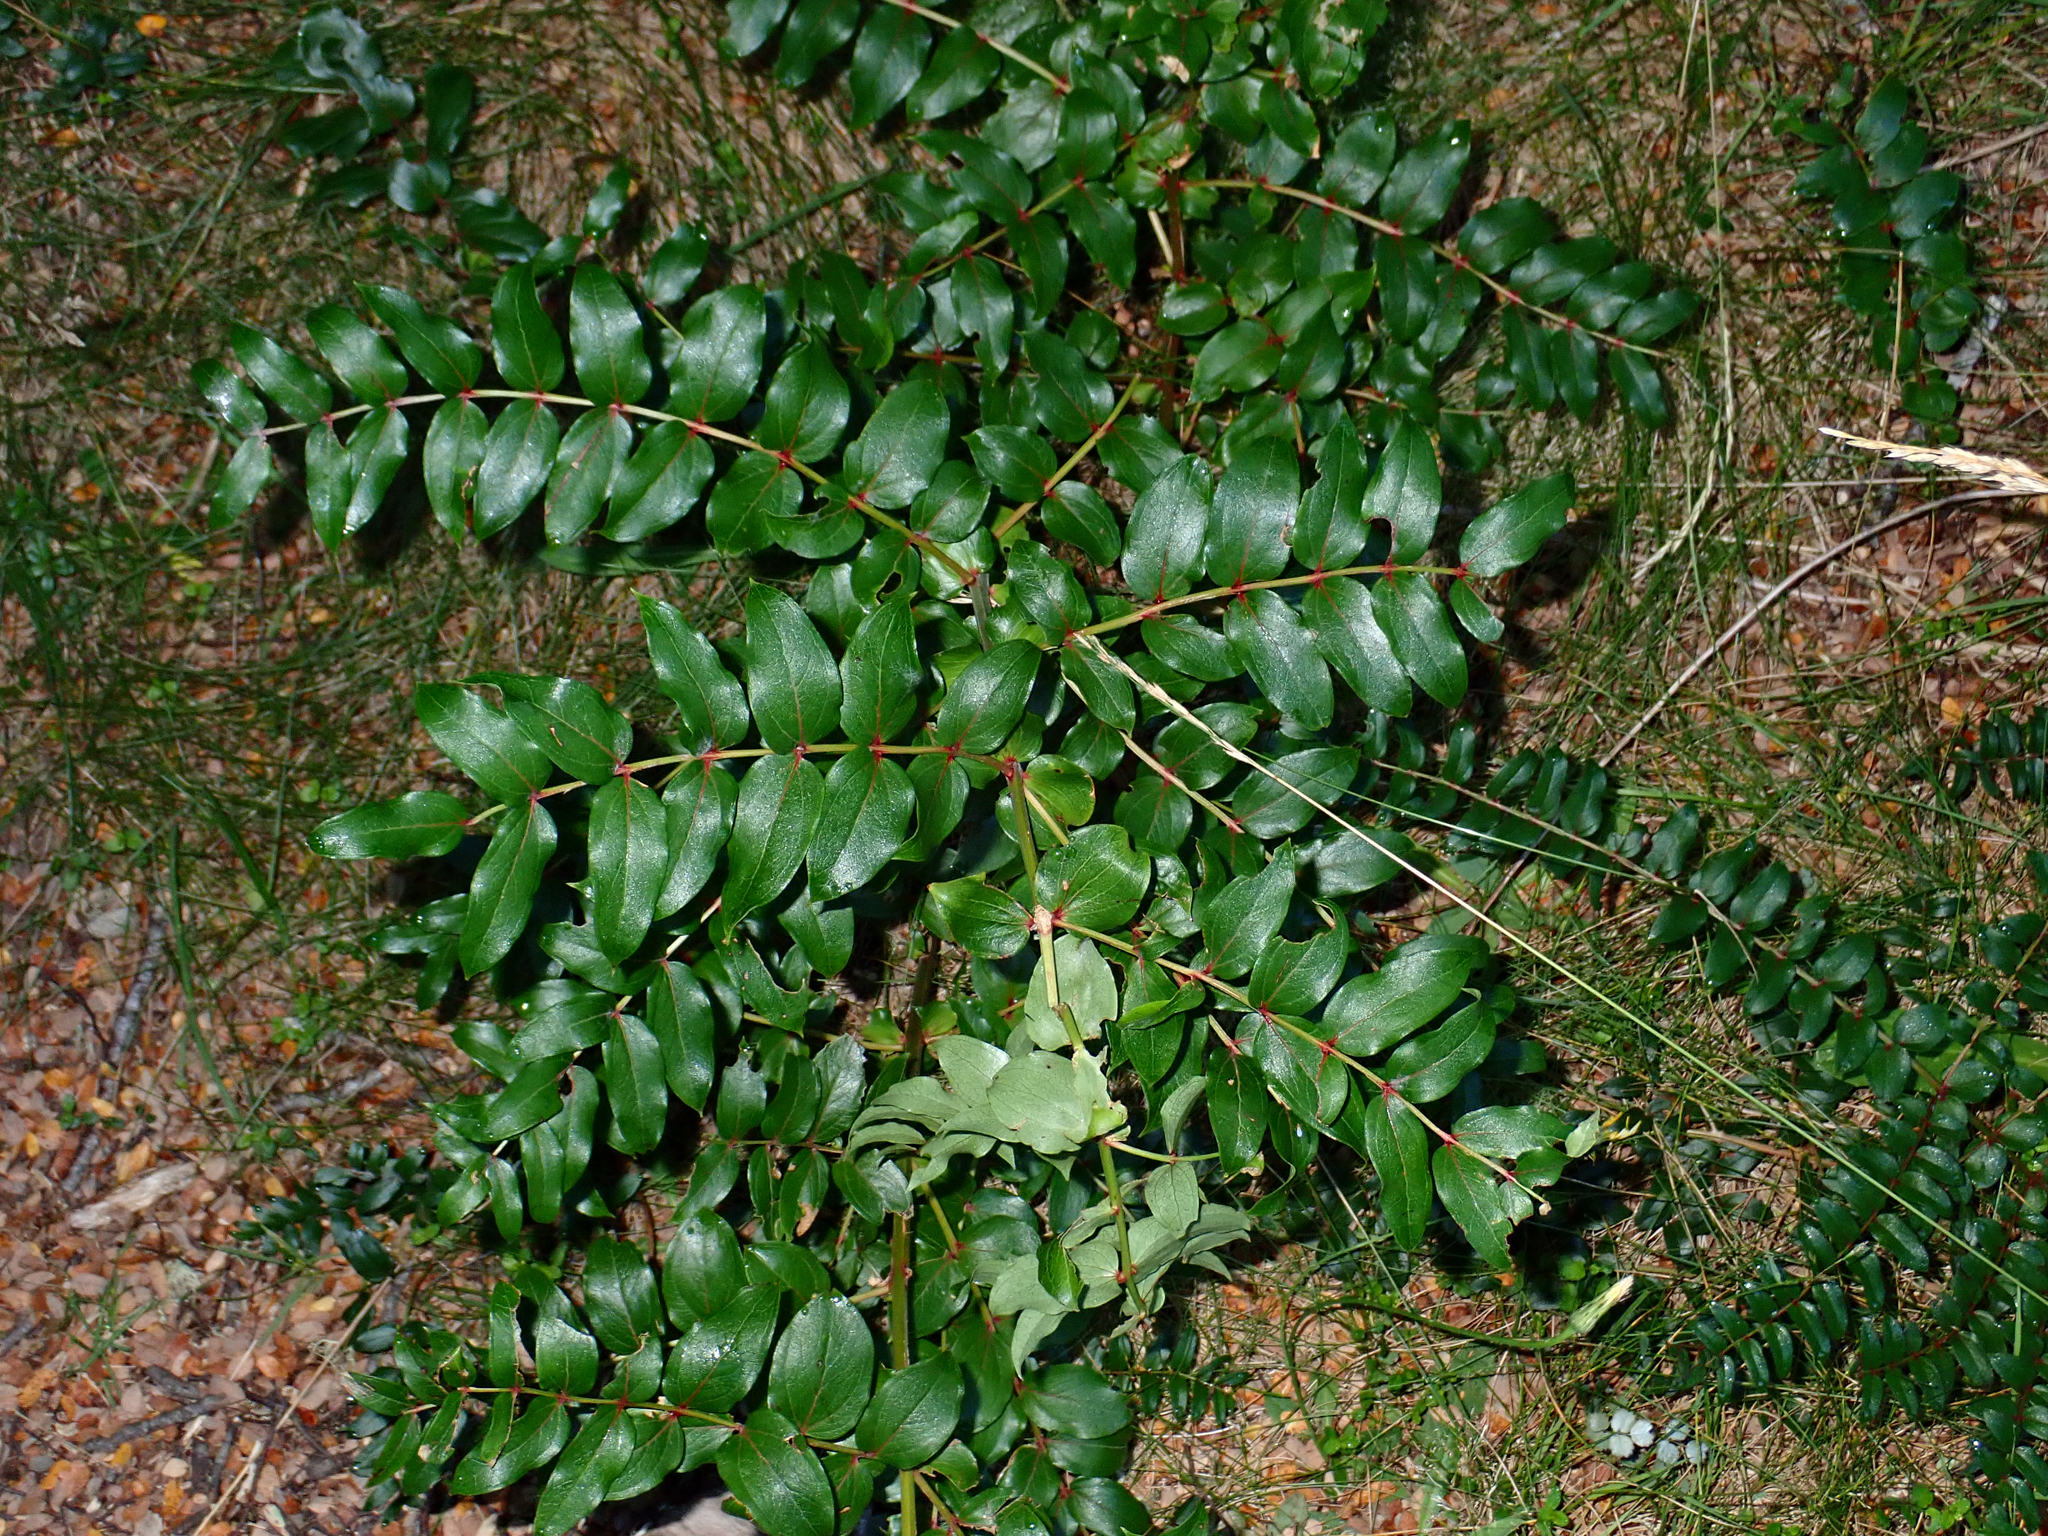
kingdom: Plantae
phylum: Tracheophyta
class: Magnoliopsida
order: Cucurbitales
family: Coriariaceae
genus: Coriaria
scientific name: Coriaria sarmentosa
